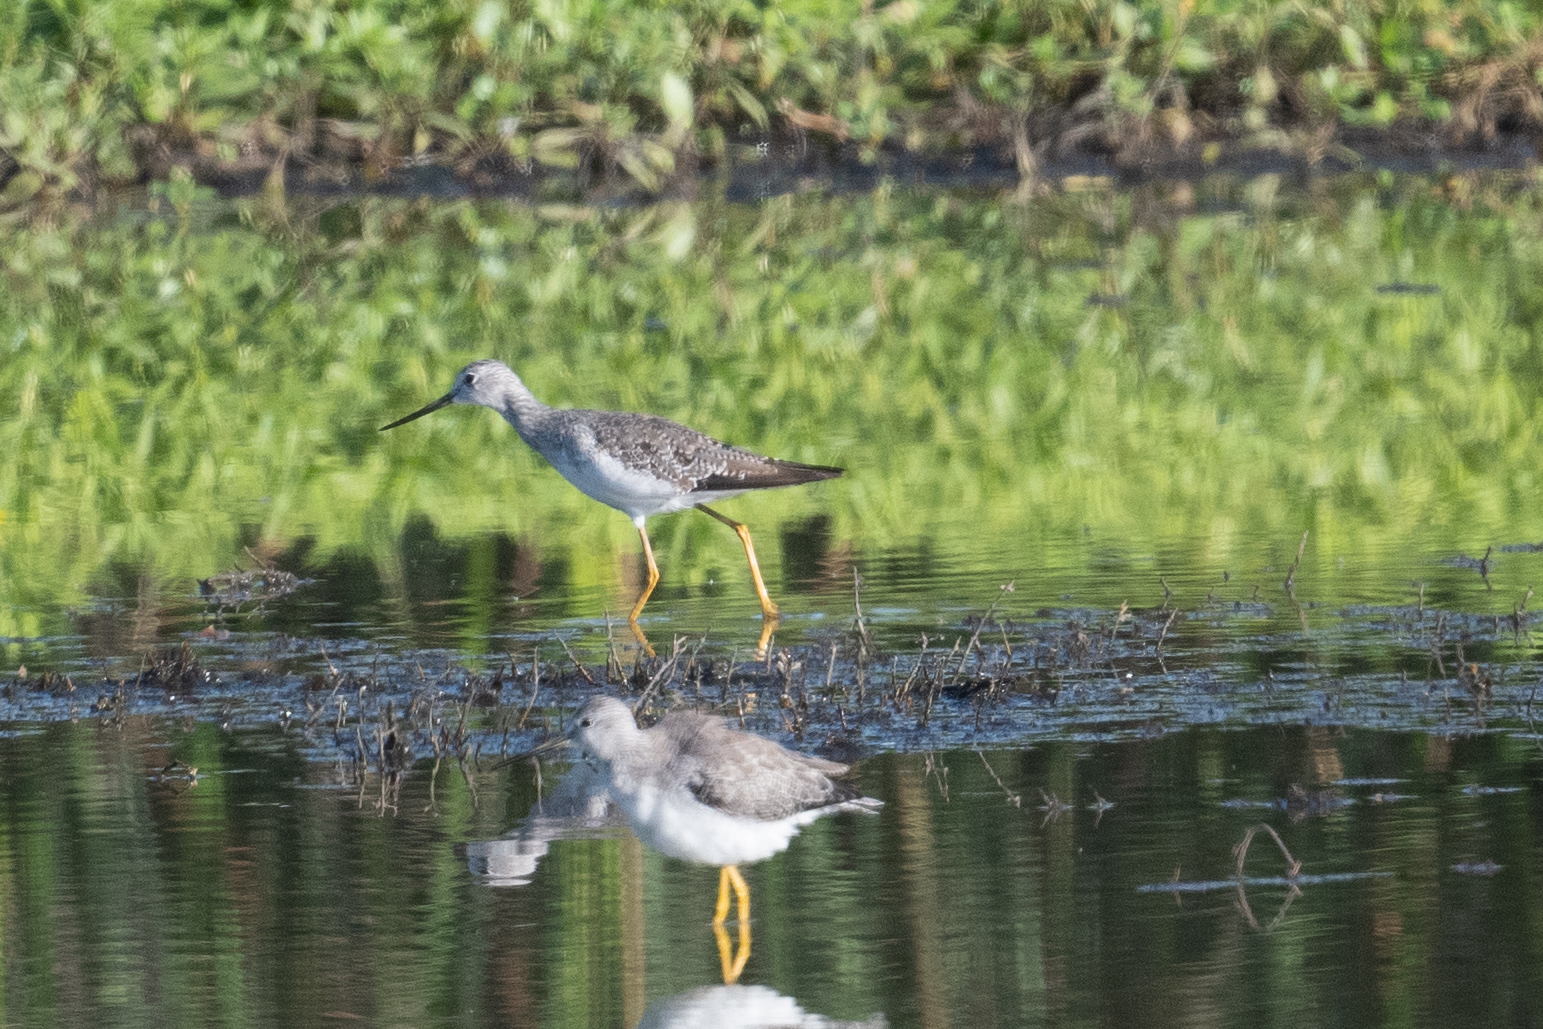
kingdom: Animalia
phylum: Chordata
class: Aves
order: Charadriiformes
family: Scolopacidae
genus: Tringa
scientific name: Tringa melanoleuca
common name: Greater yellowlegs
